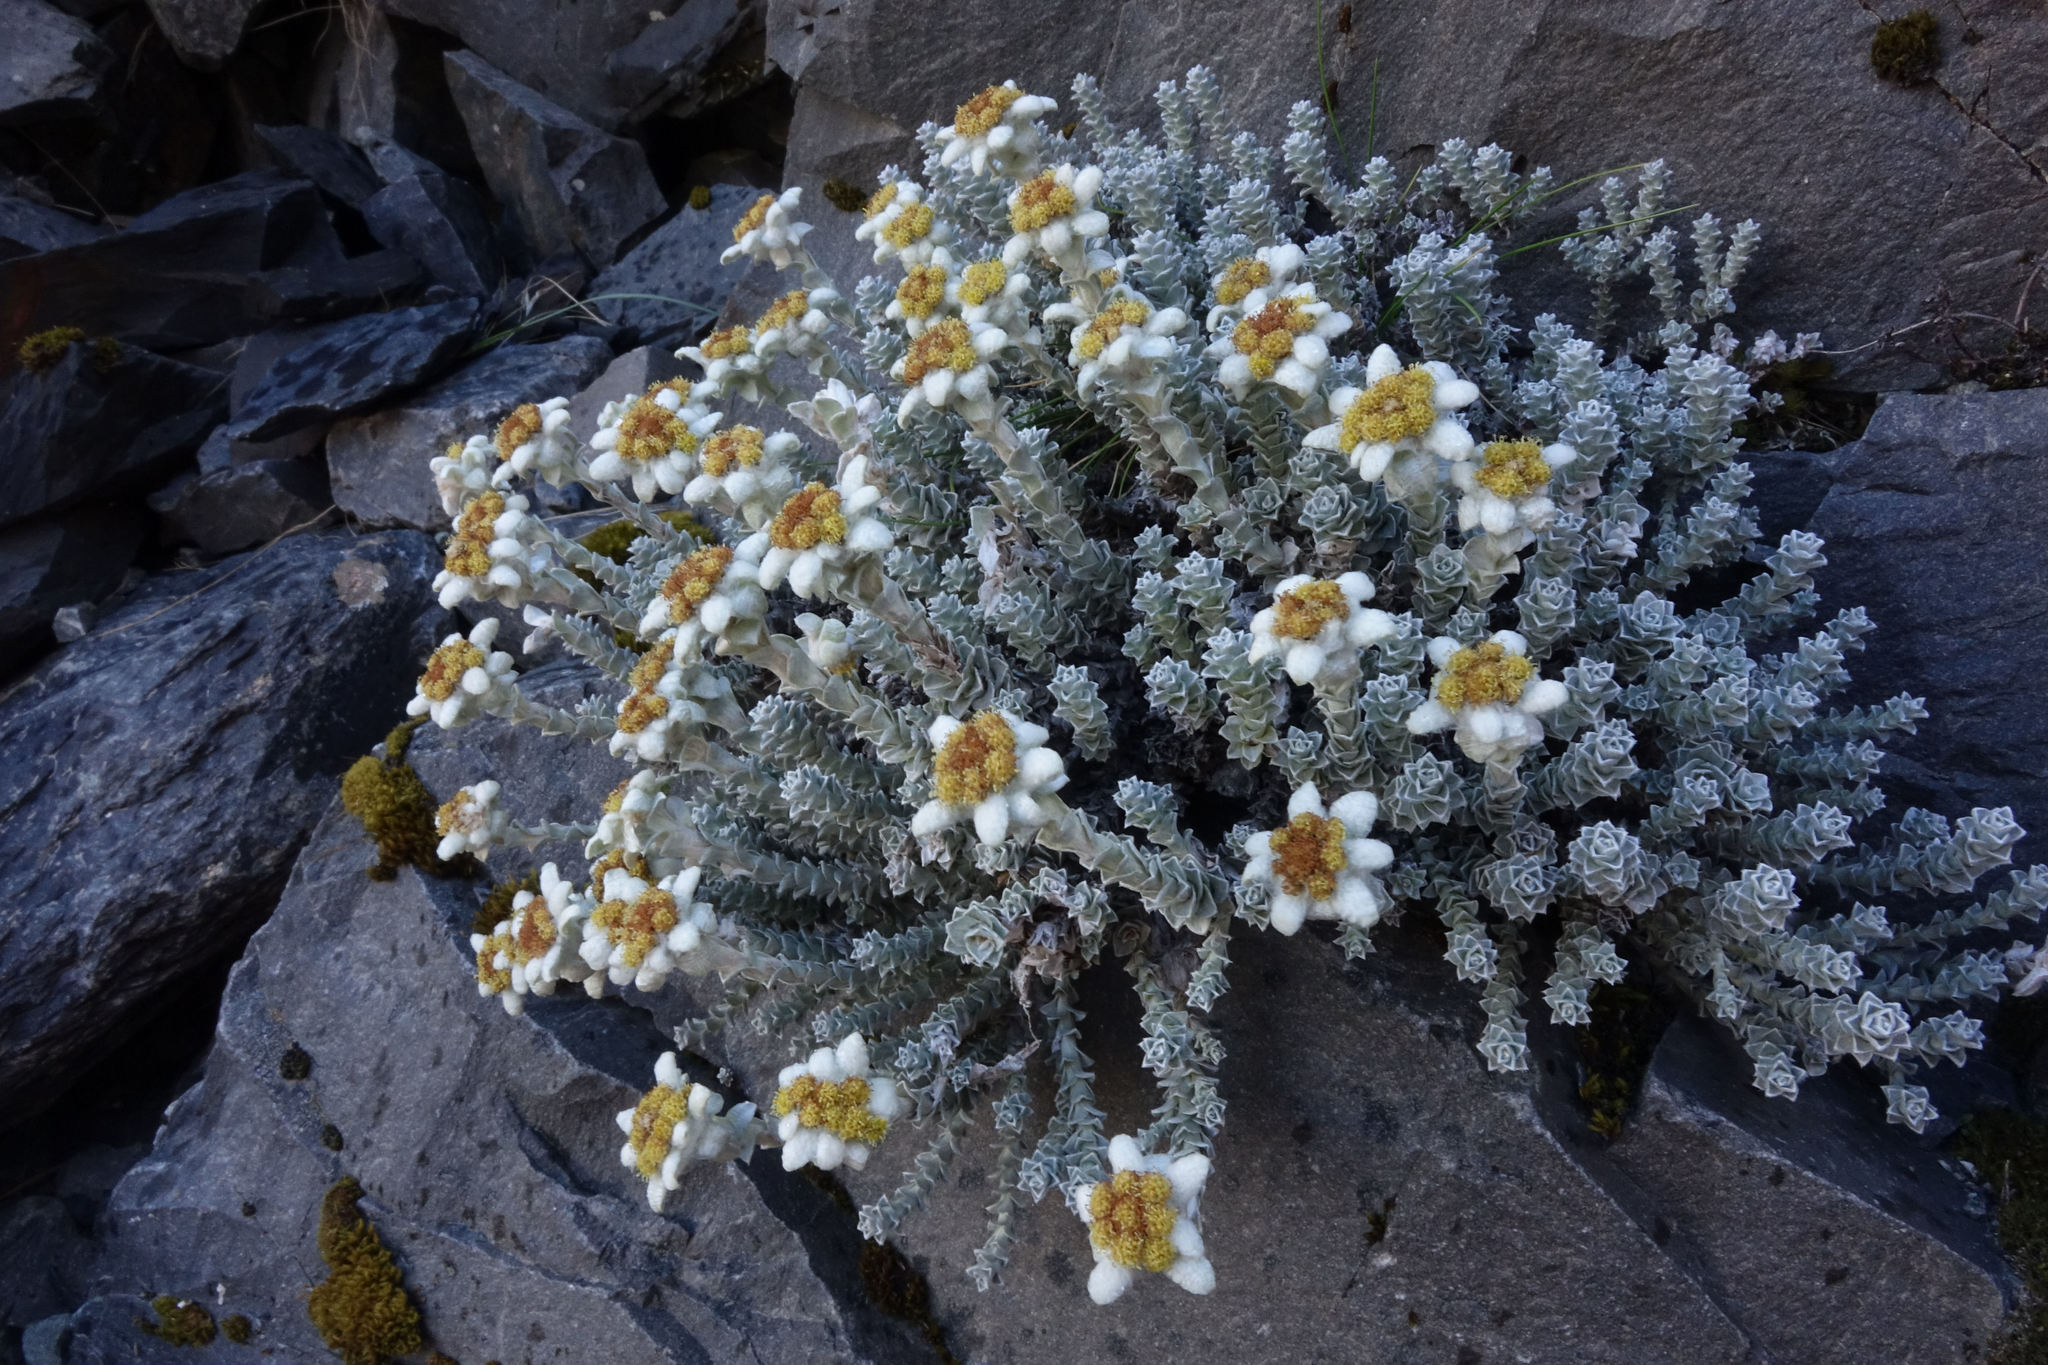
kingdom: Plantae
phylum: Tracheophyta
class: Magnoliopsida
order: Asterales
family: Asteraceae
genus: Leucogenes
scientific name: Leucogenes grandiceps
